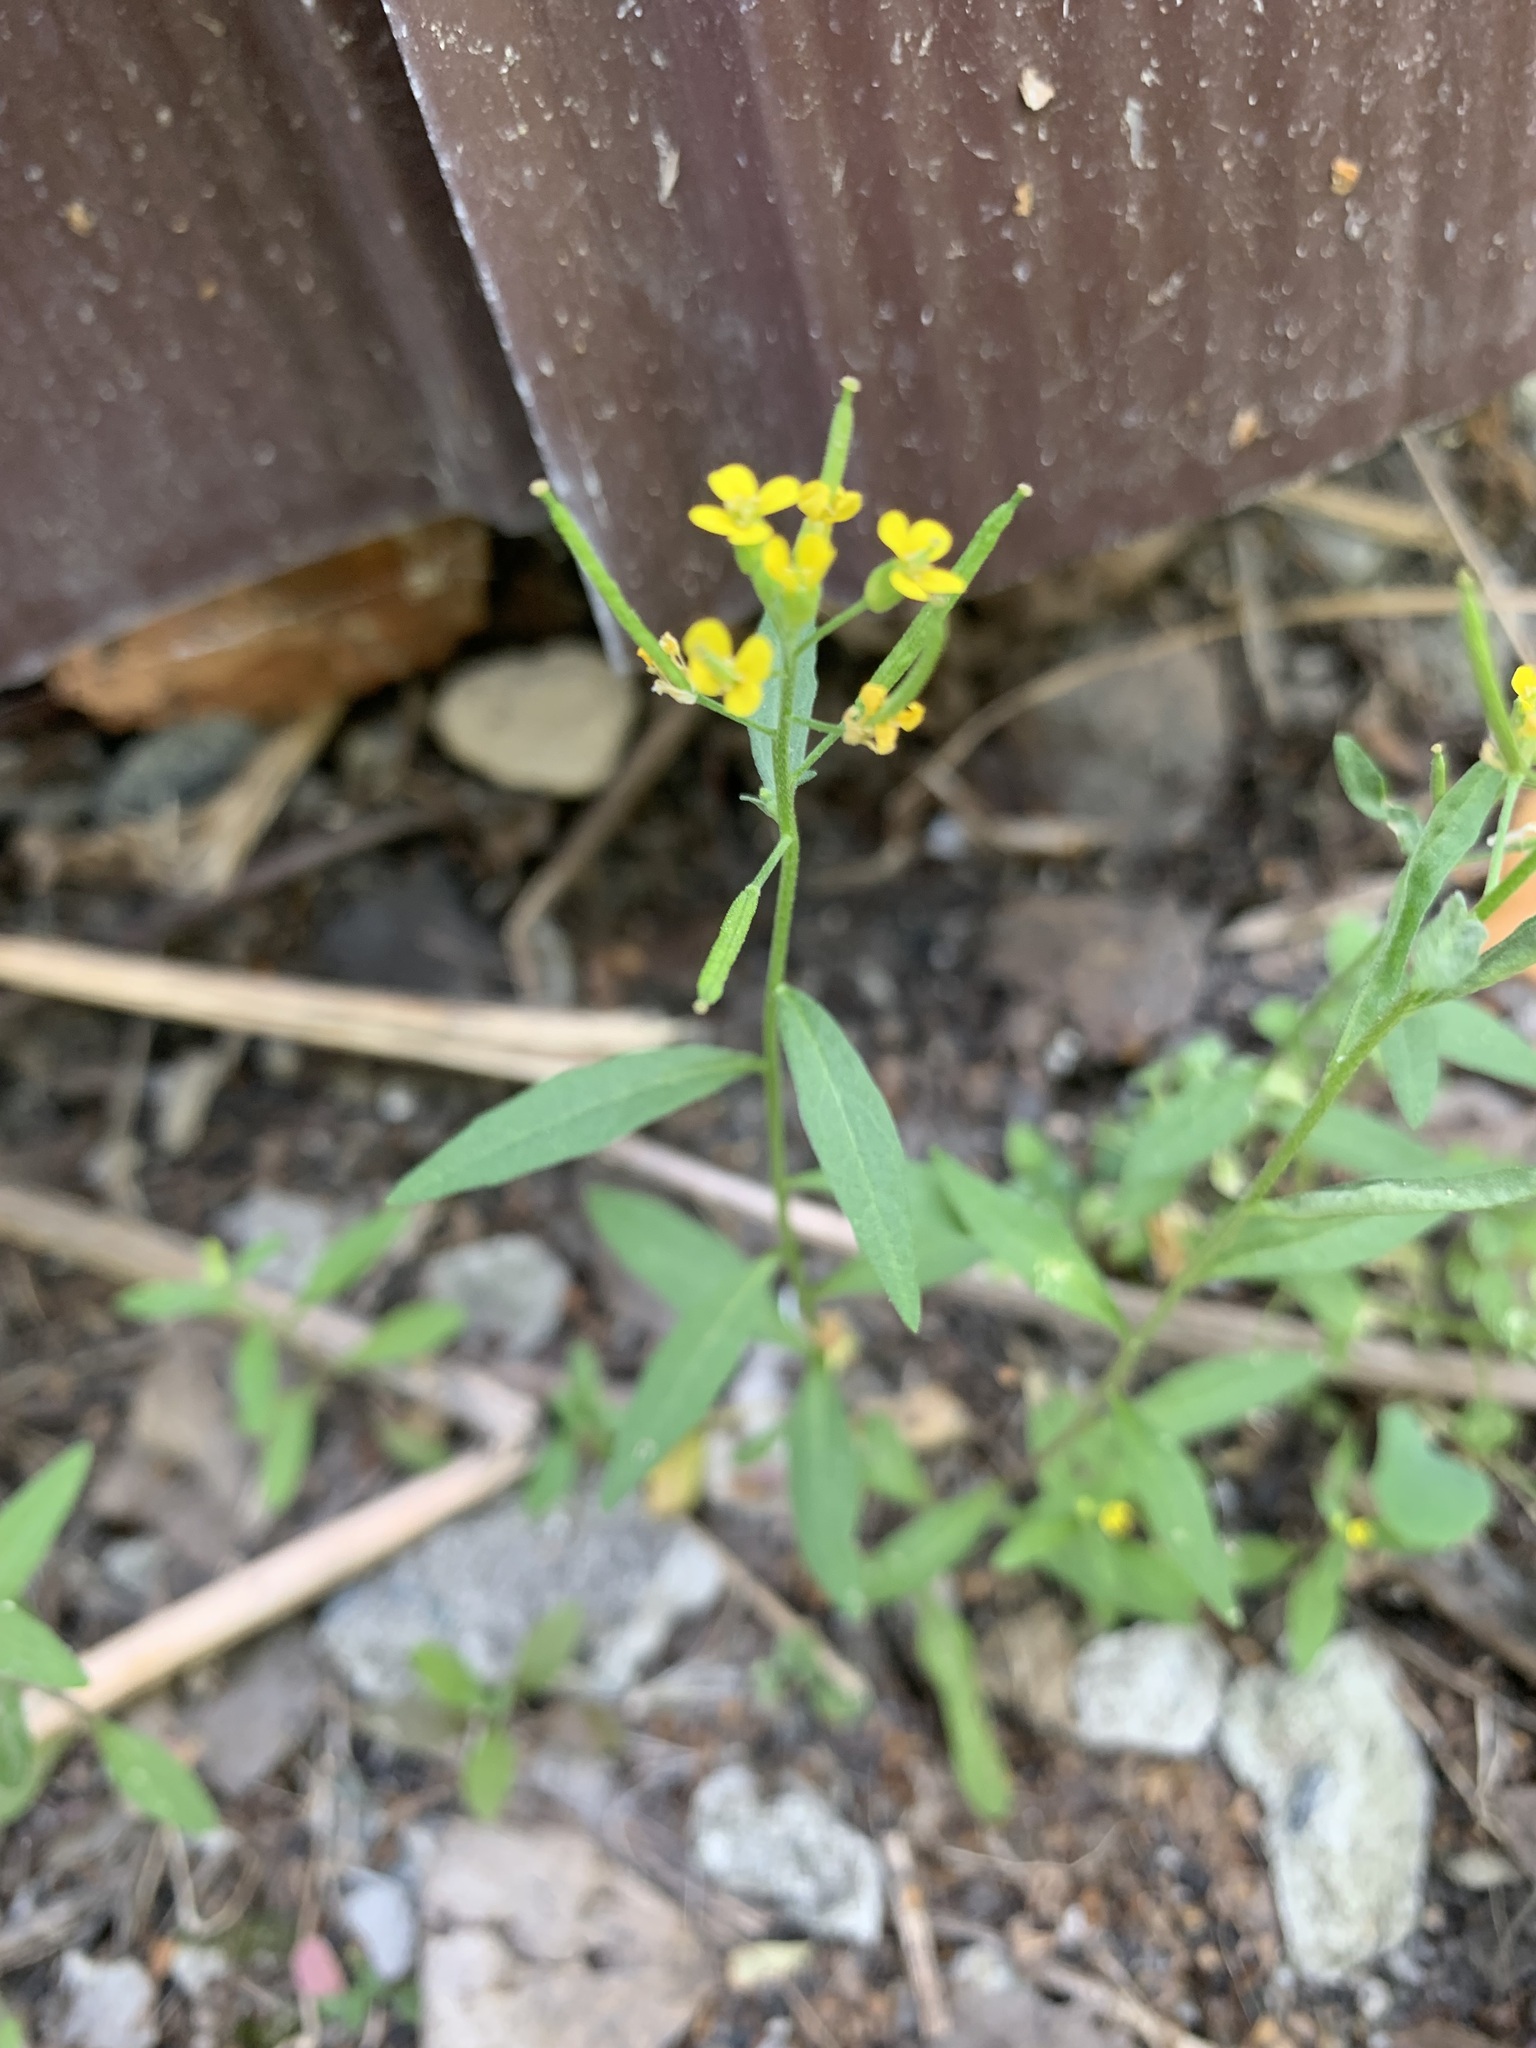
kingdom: Plantae
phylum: Tracheophyta
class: Magnoliopsida
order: Brassicales
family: Brassicaceae
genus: Erysimum
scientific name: Erysimum cheiranthoides
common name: Treacle mustard
